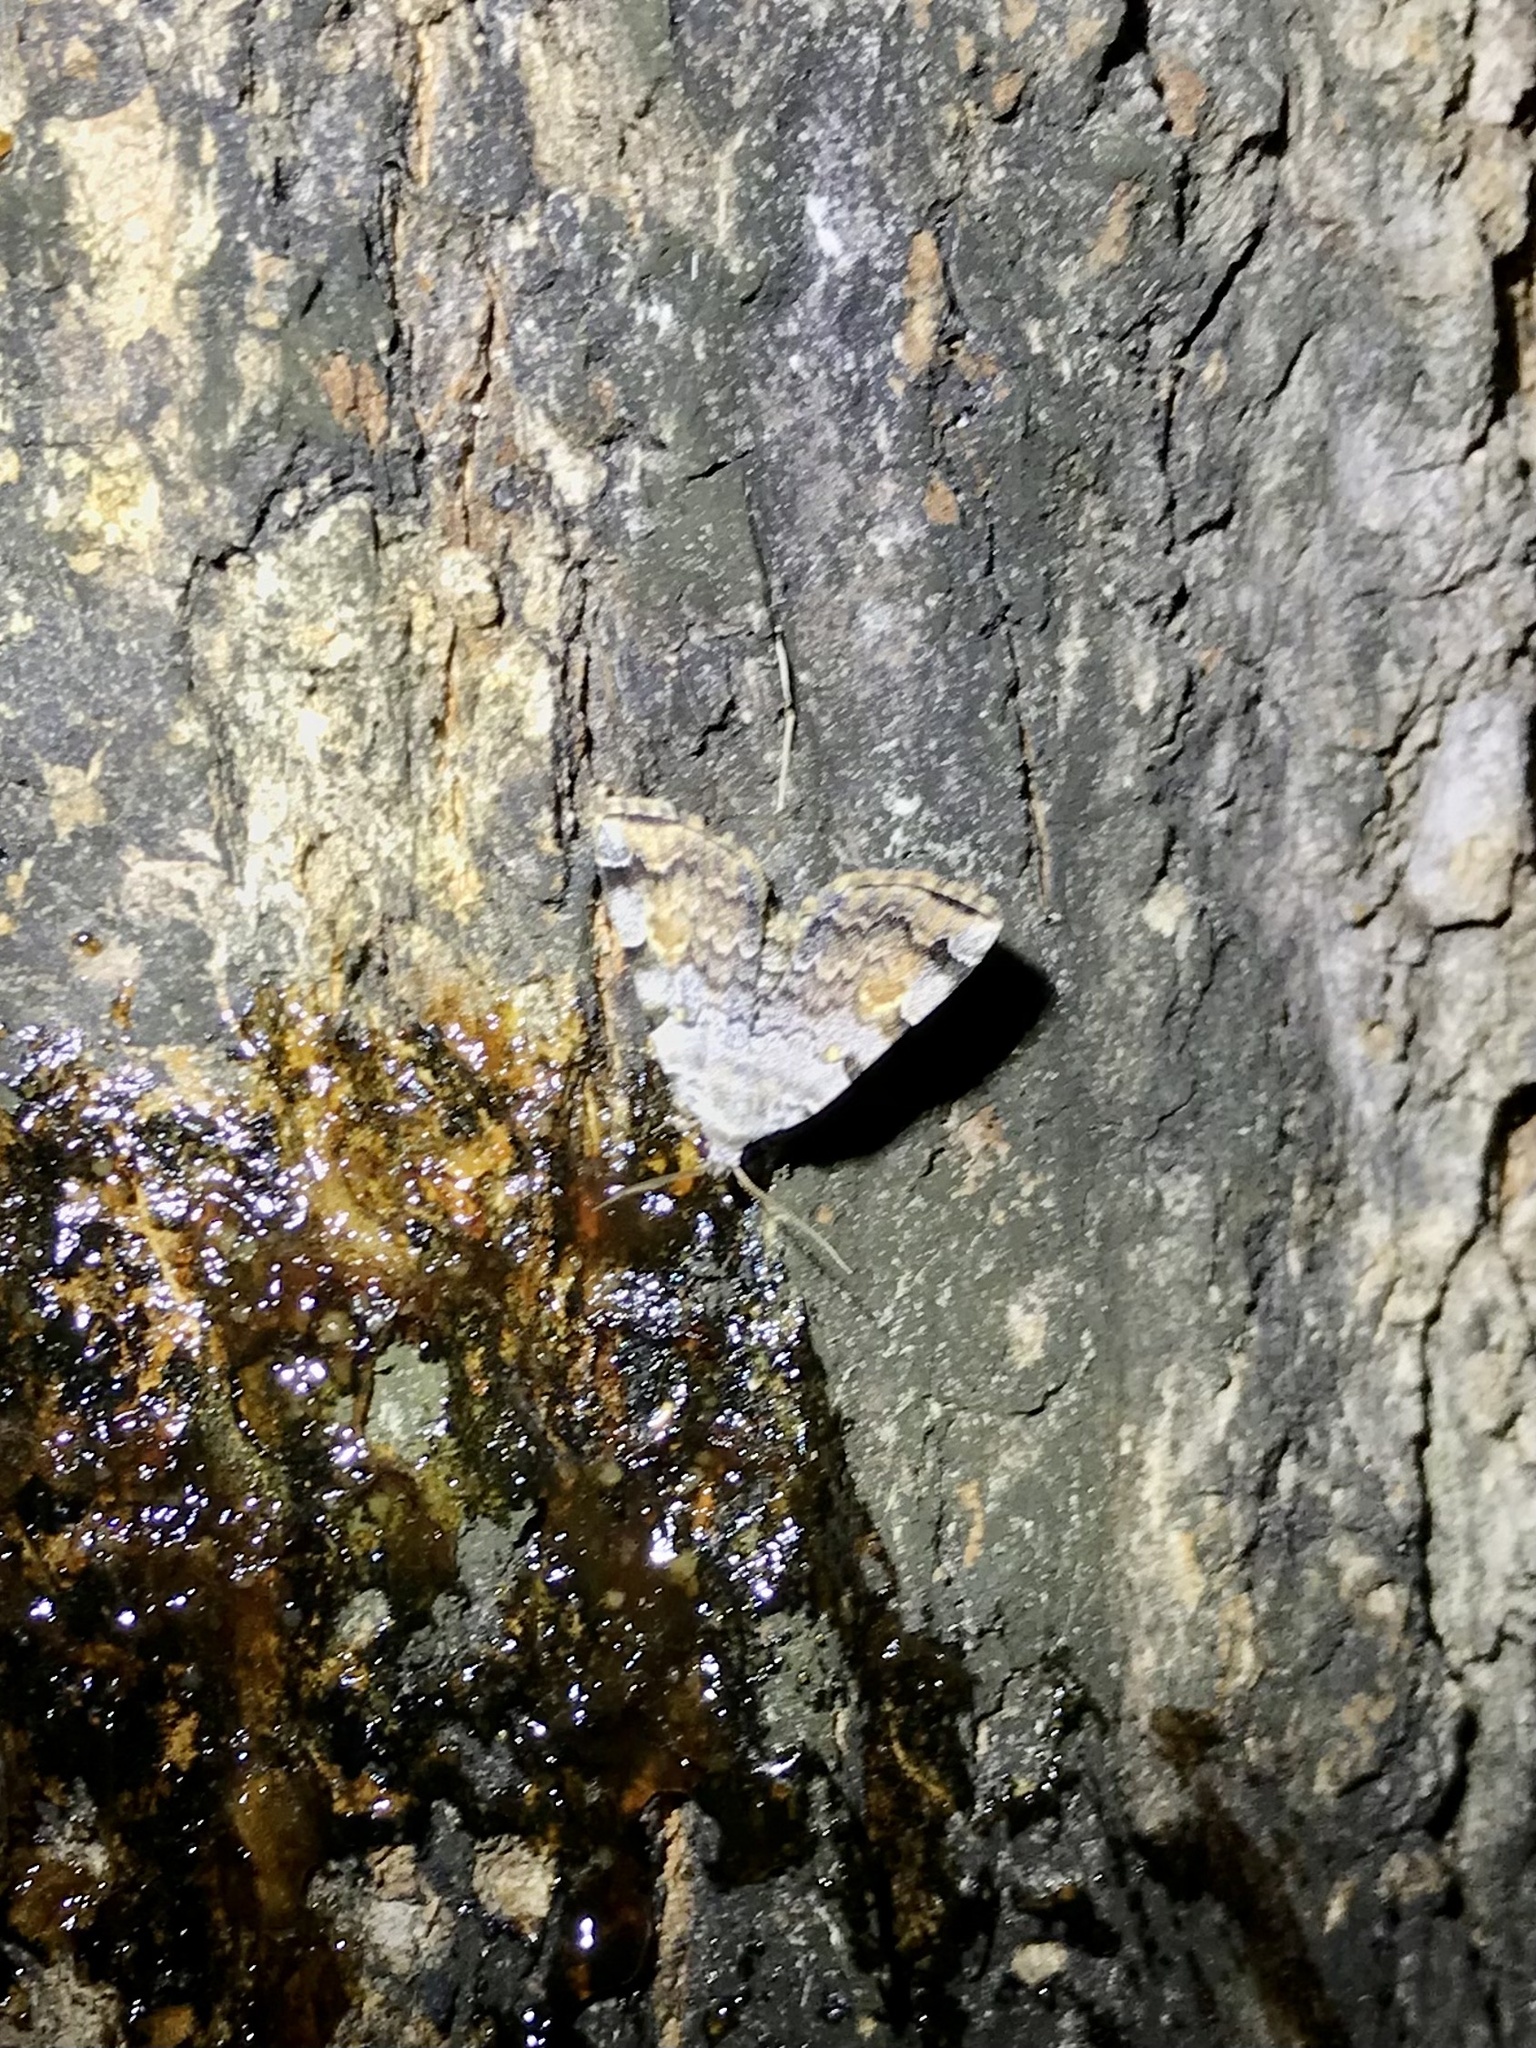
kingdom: Animalia
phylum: Arthropoda
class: Insecta
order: Lepidoptera
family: Erebidae
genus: Idia
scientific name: Idia americalis
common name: American idia moth
